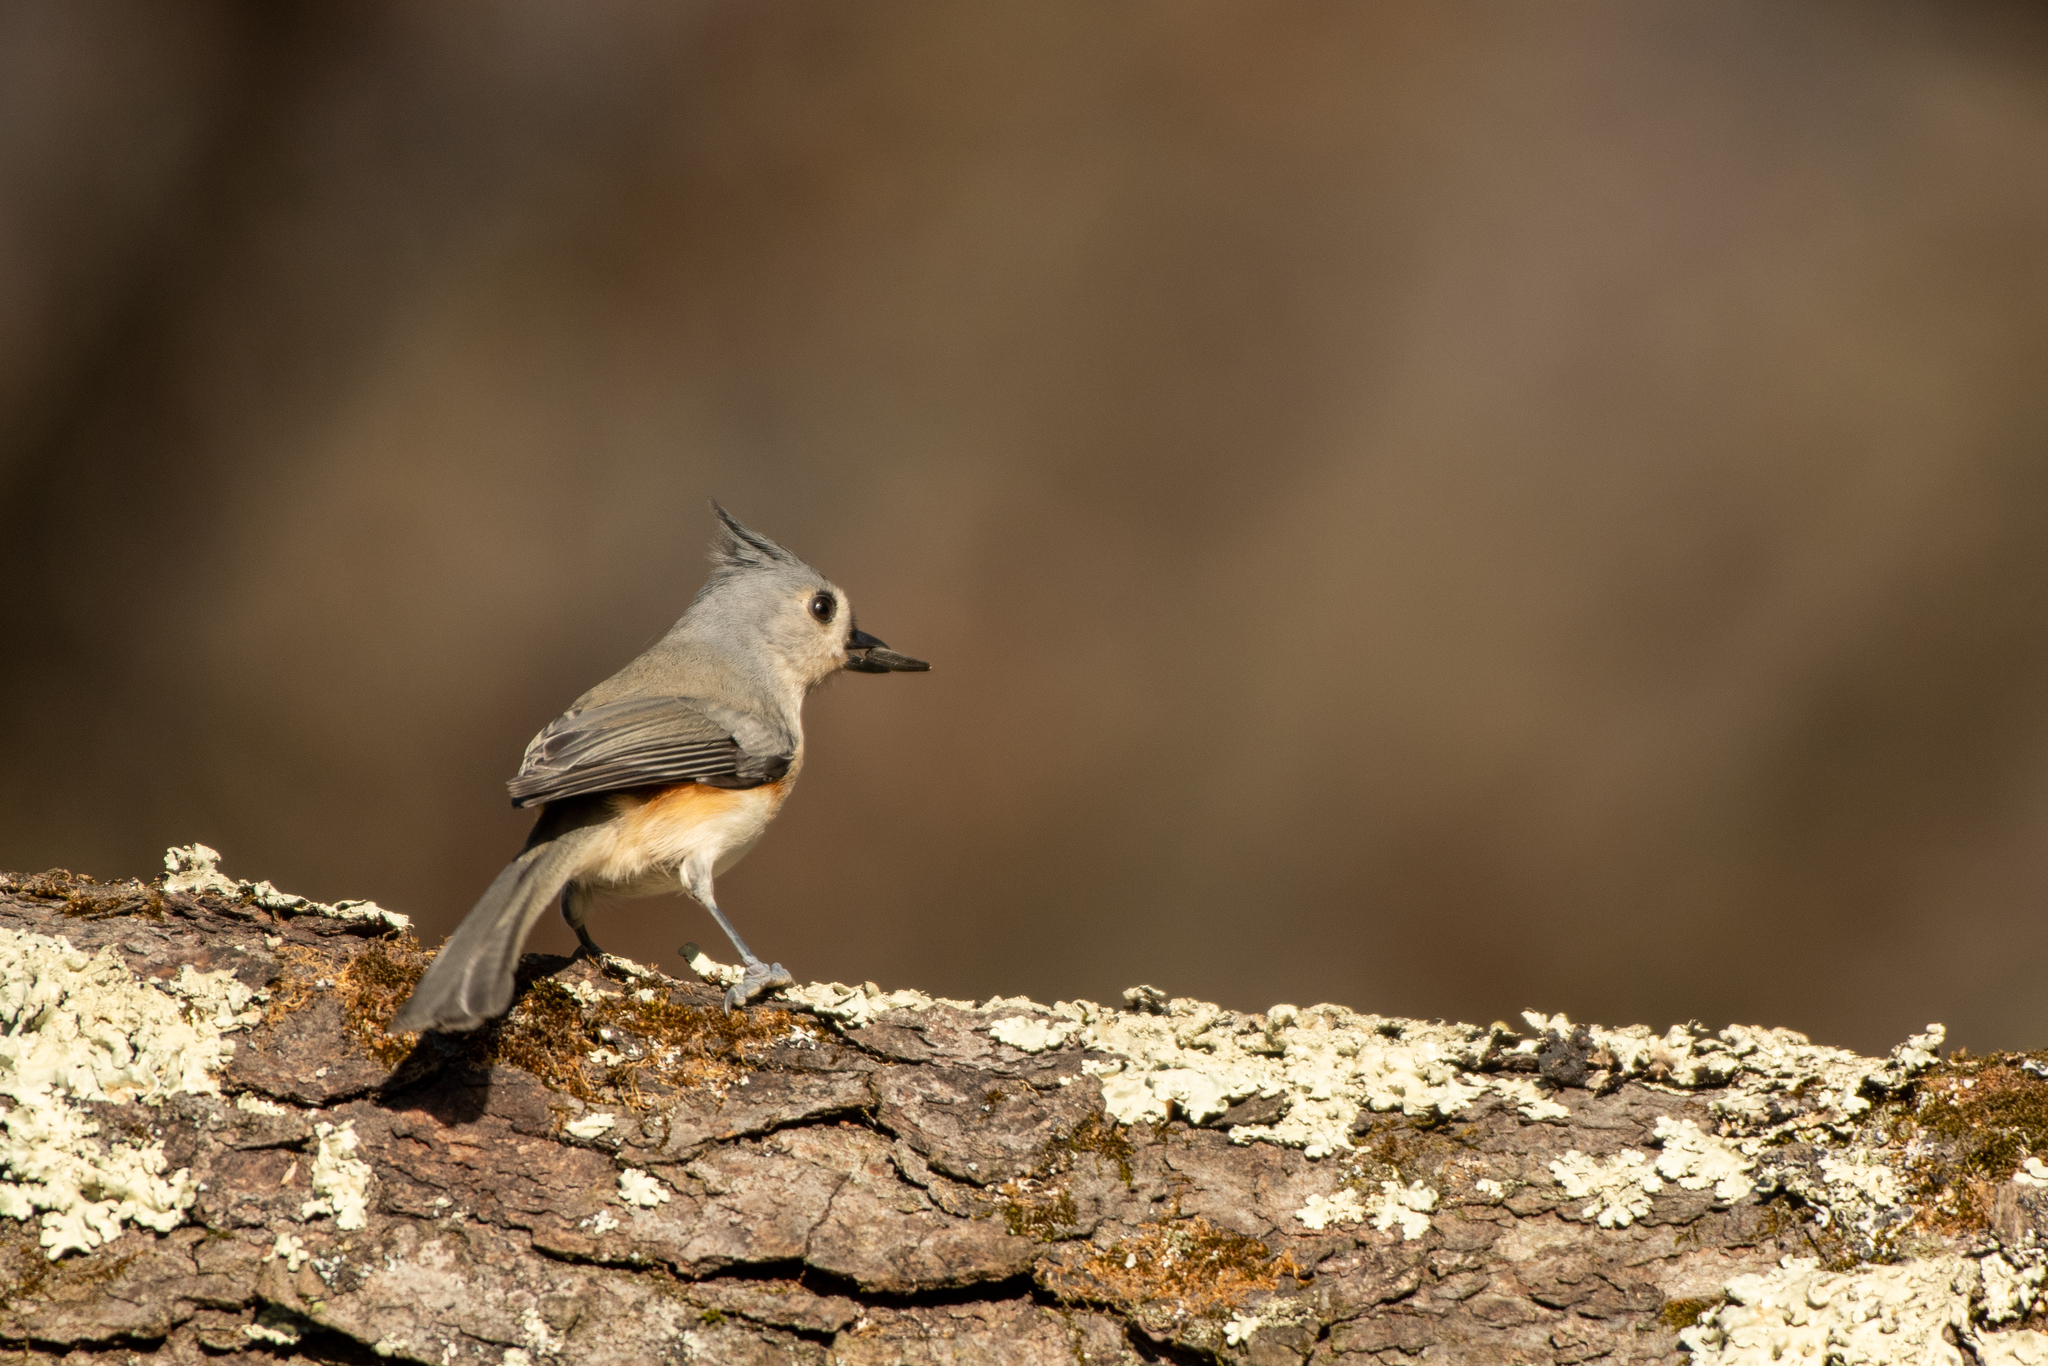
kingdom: Animalia
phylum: Chordata
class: Aves
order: Passeriformes
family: Paridae
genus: Baeolophus
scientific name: Baeolophus bicolor
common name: Tufted titmouse
